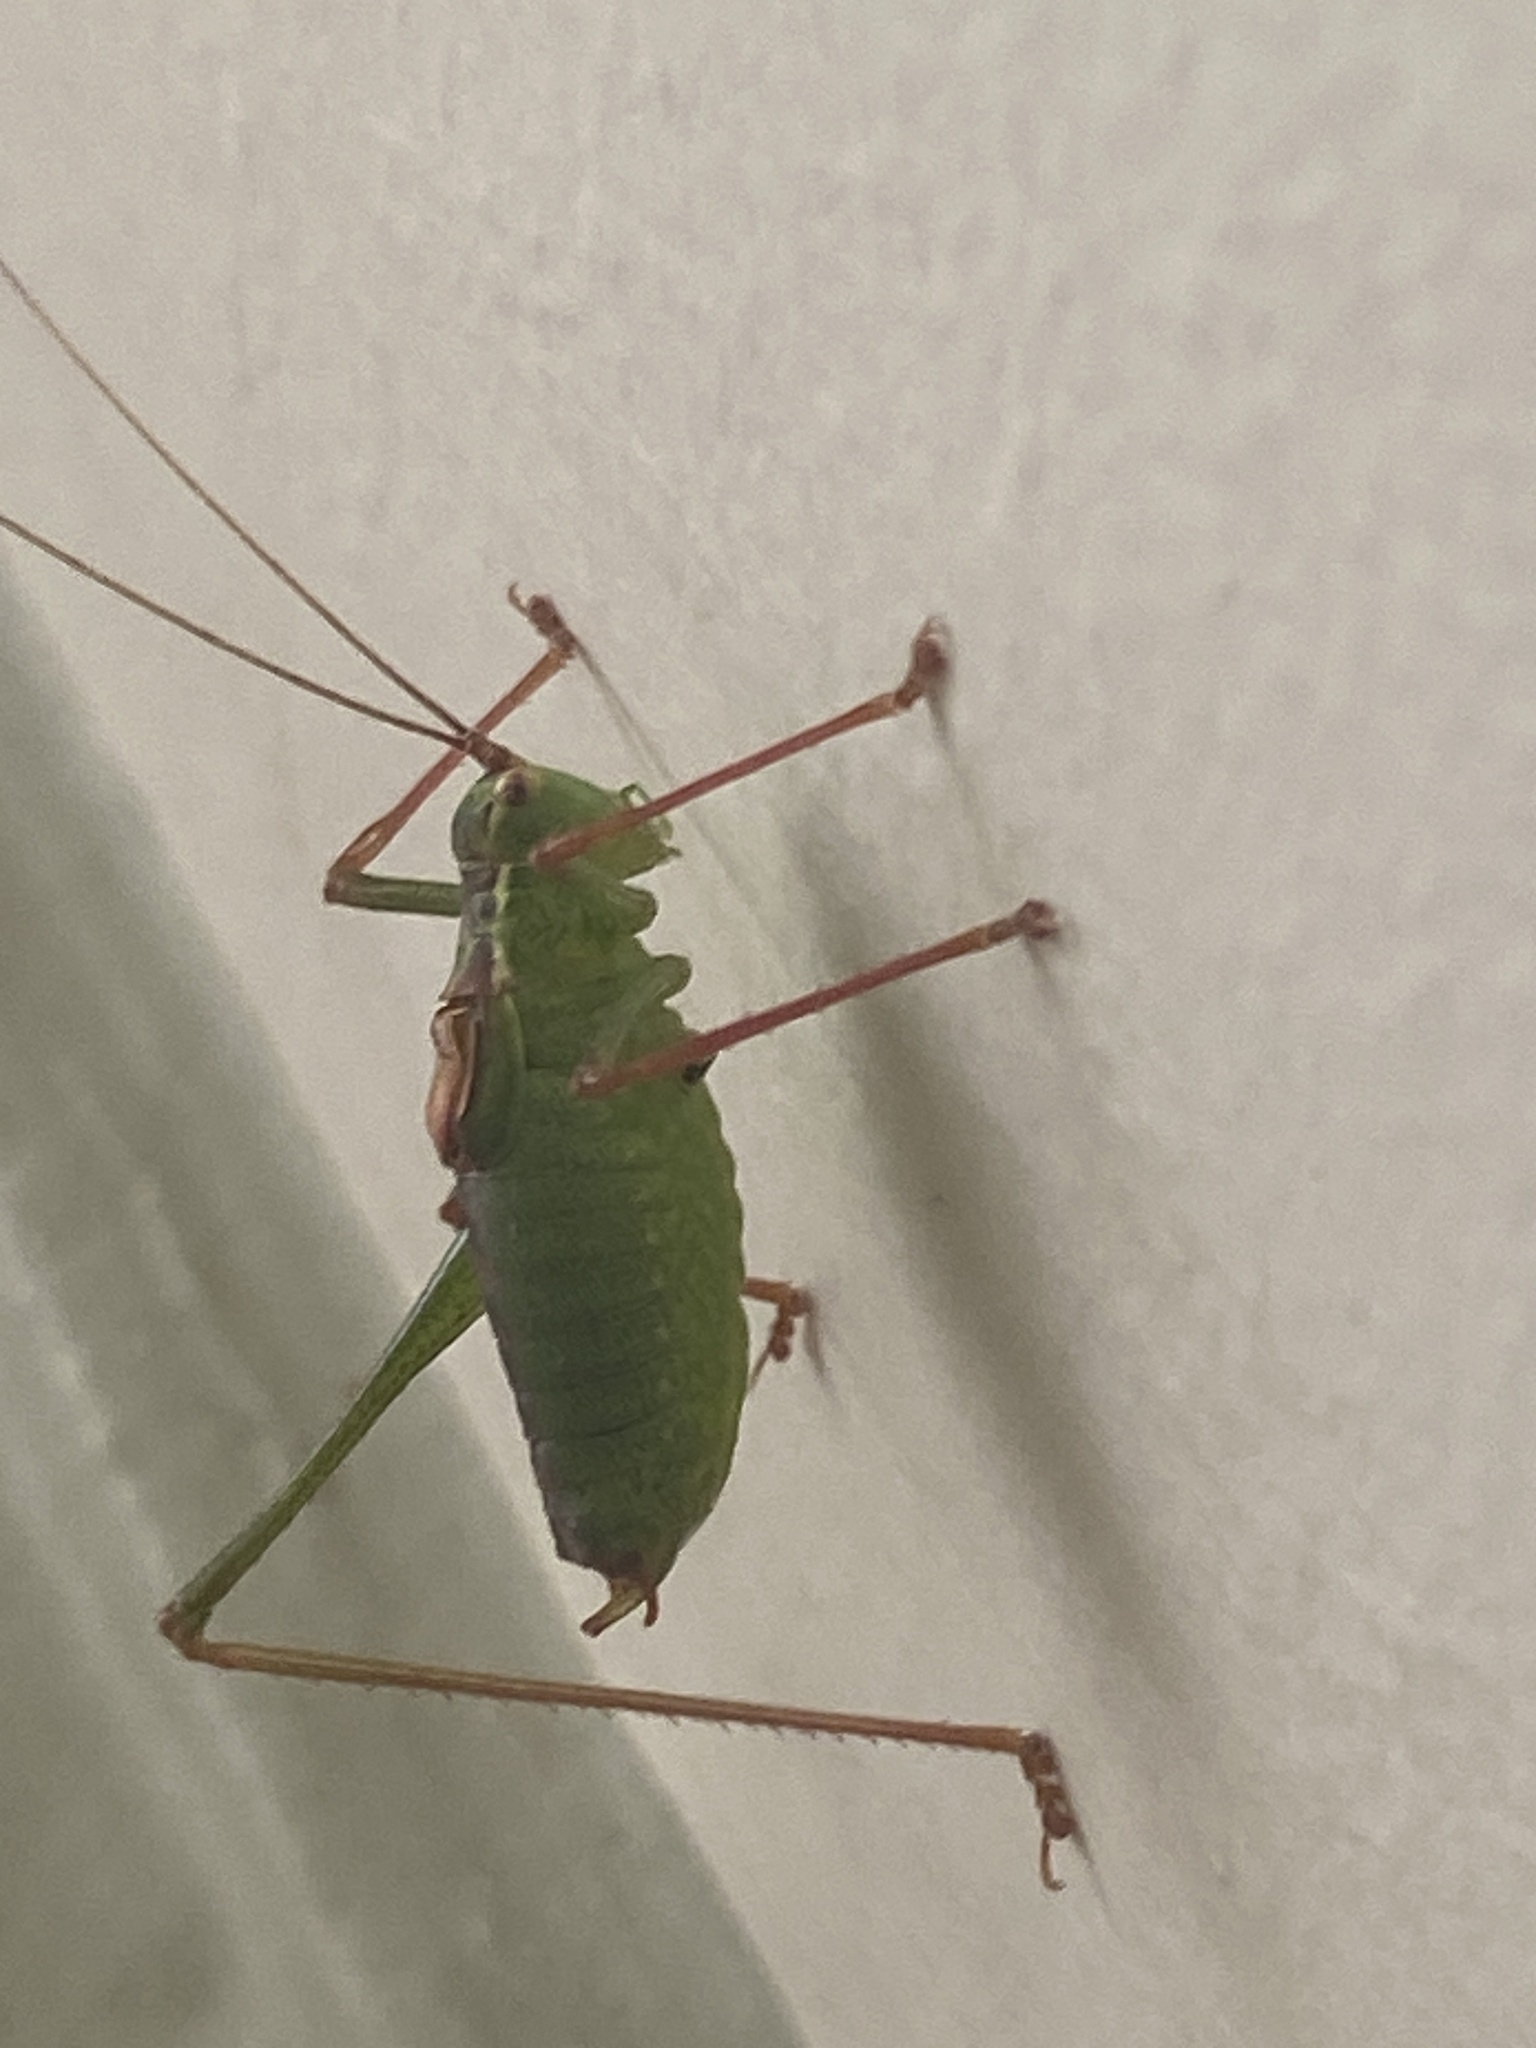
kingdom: Animalia
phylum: Arthropoda
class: Insecta
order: Orthoptera
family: Tettigoniidae
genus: Leptophyes
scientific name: Leptophyes punctatissima
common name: Speckled bush-cricket
